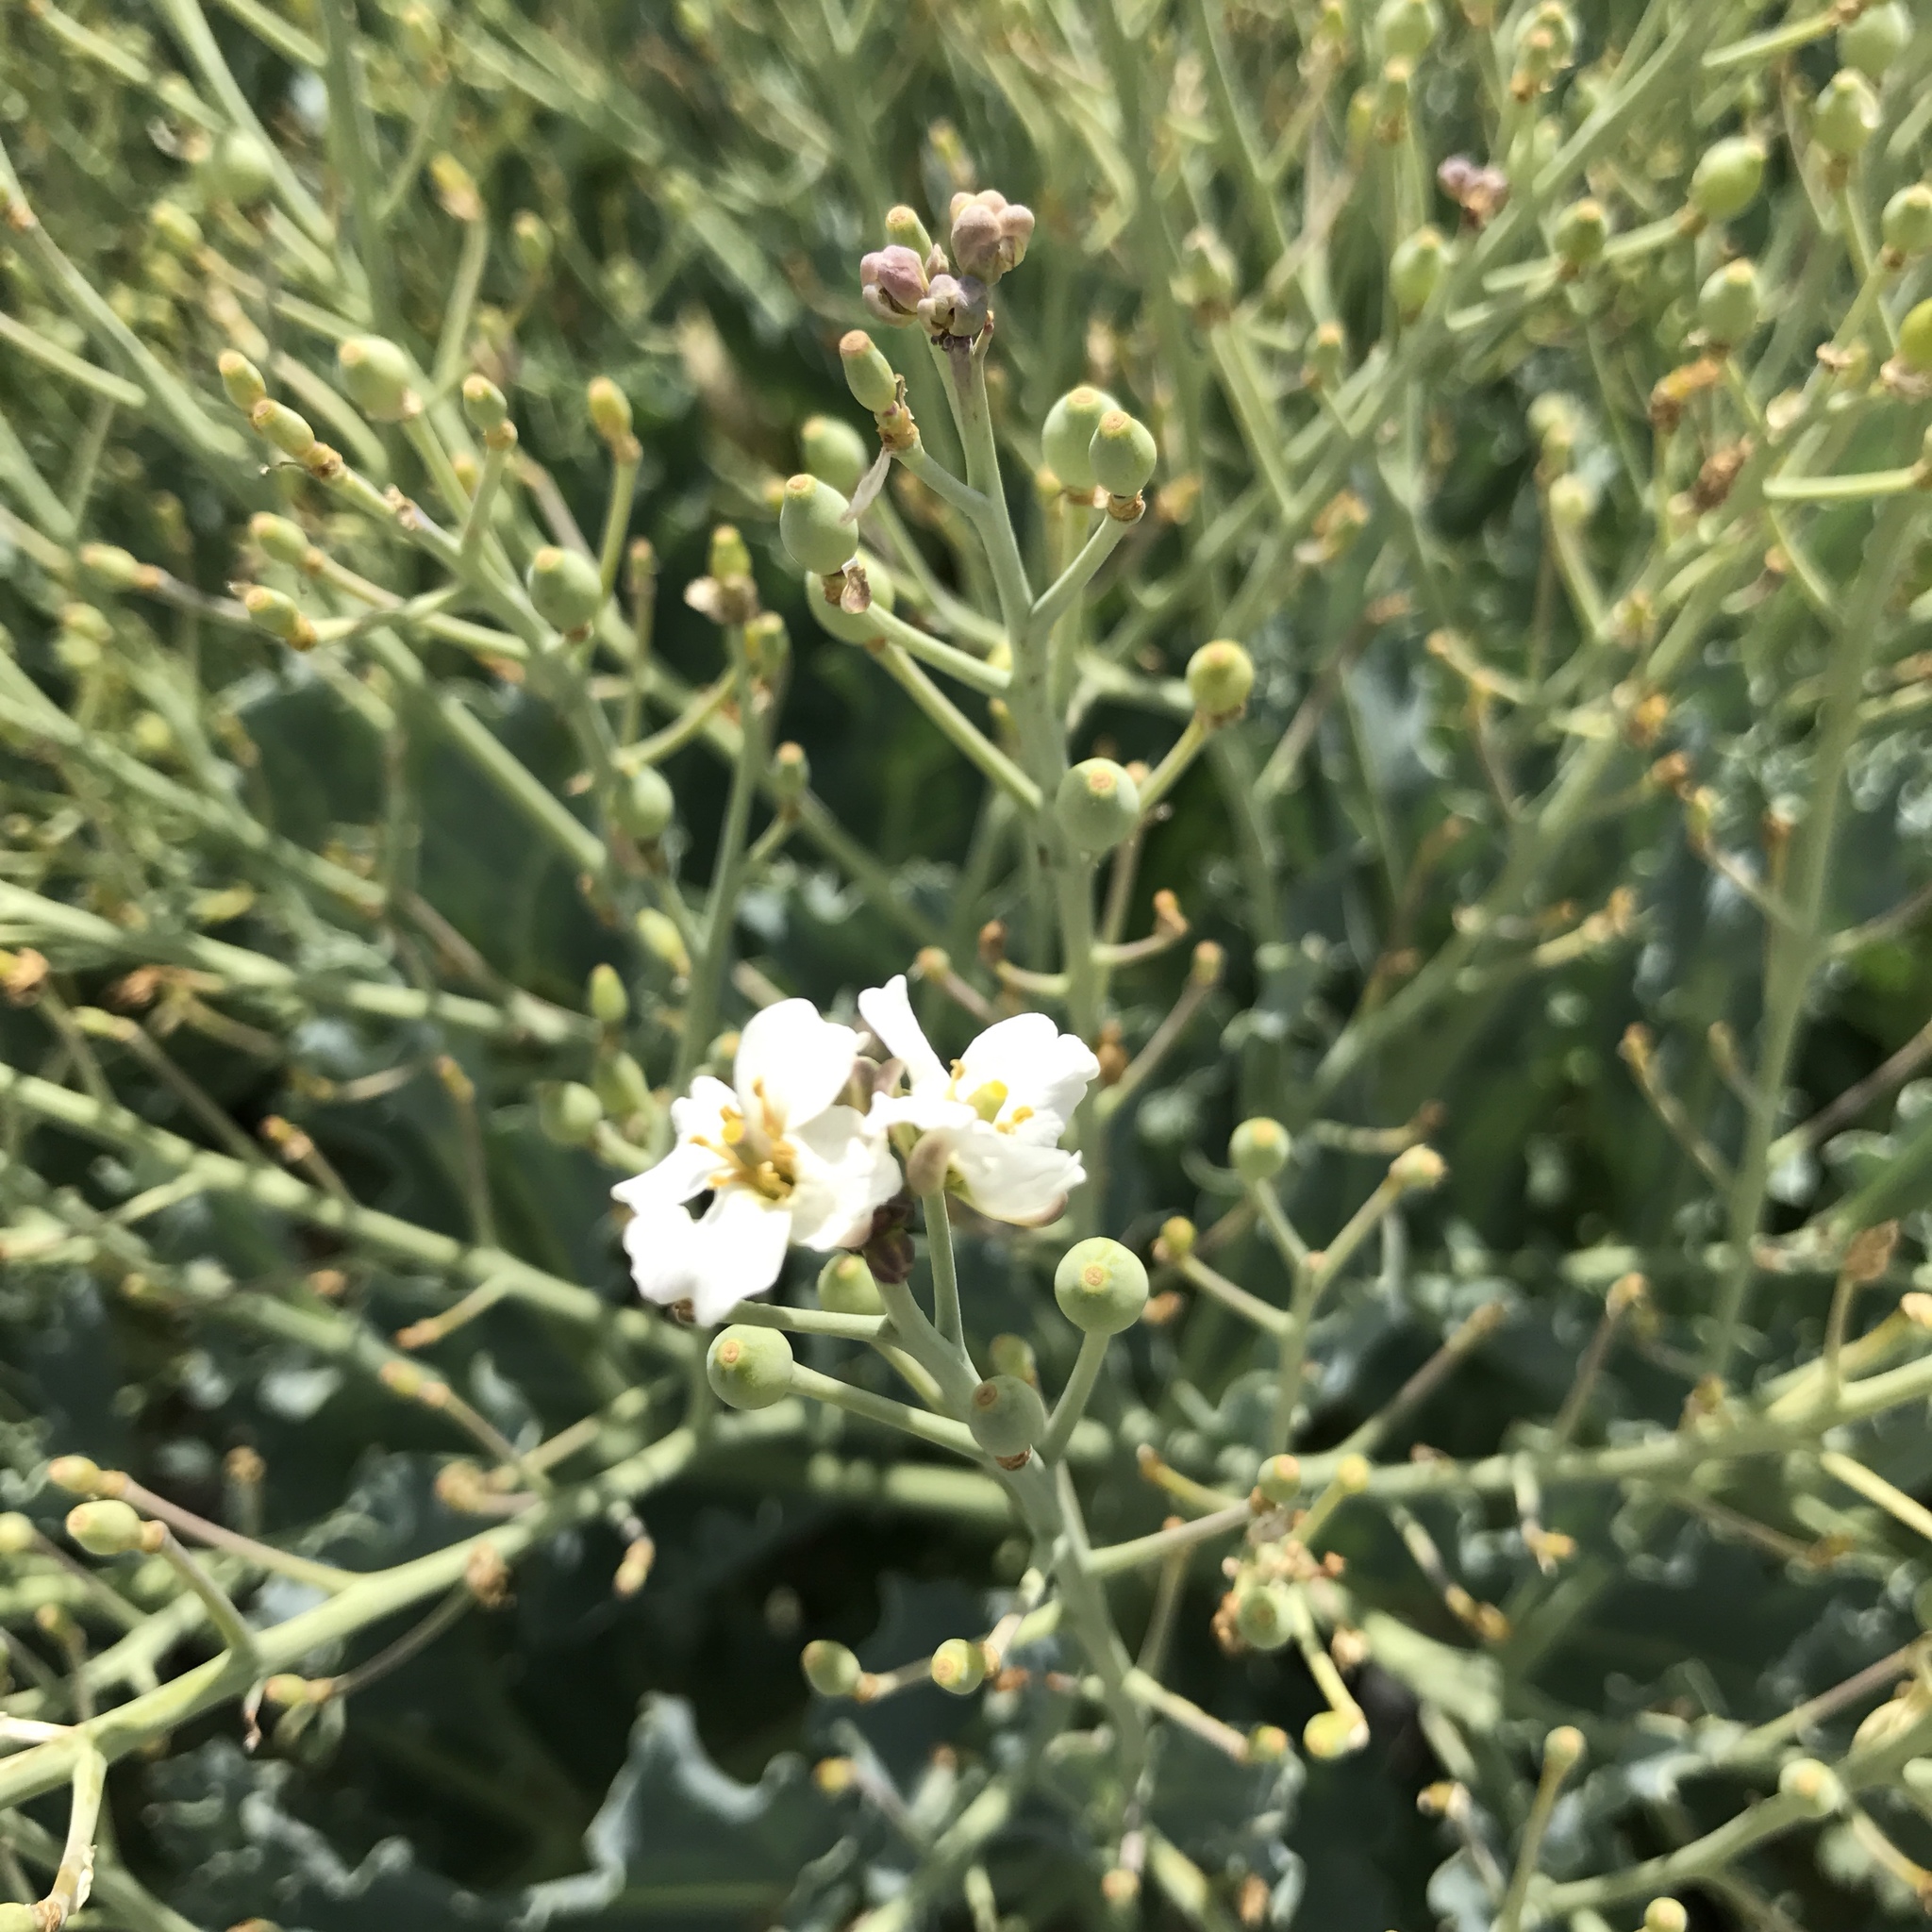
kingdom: Plantae
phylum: Tracheophyta
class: Magnoliopsida
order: Brassicales
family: Brassicaceae
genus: Crambe
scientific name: Crambe maritima
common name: Sea-kale
